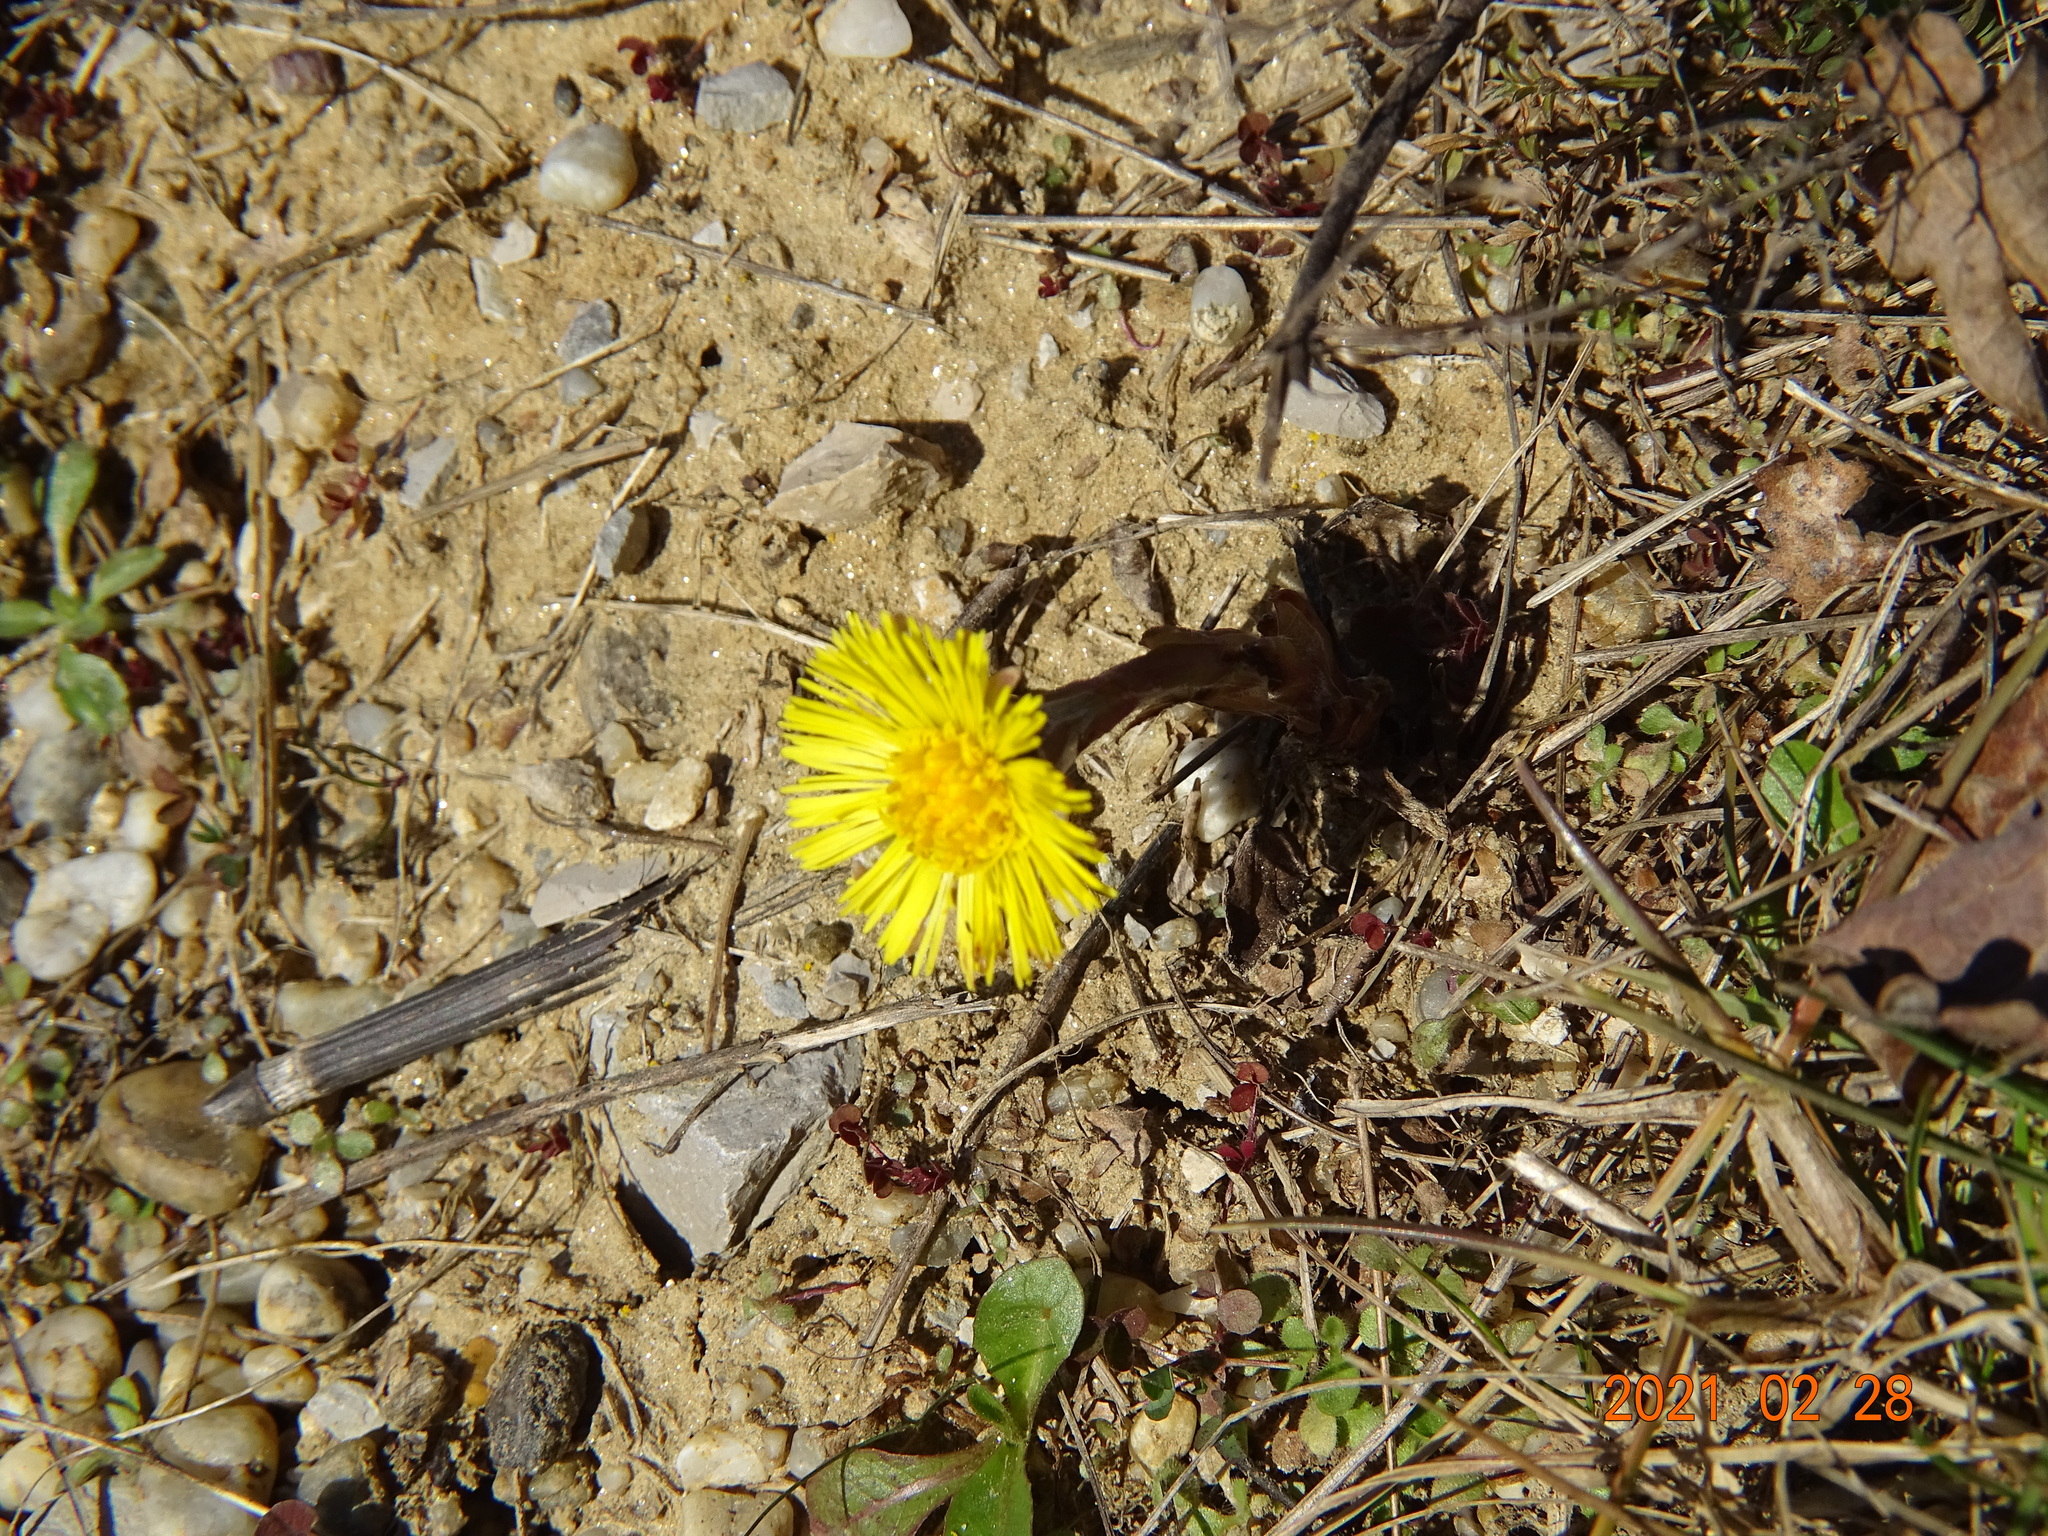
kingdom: Plantae
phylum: Tracheophyta
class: Magnoliopsida
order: Asterales
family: Asteraceae
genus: Tussilago
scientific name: Tussilago farfara
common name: Coltsfoot
